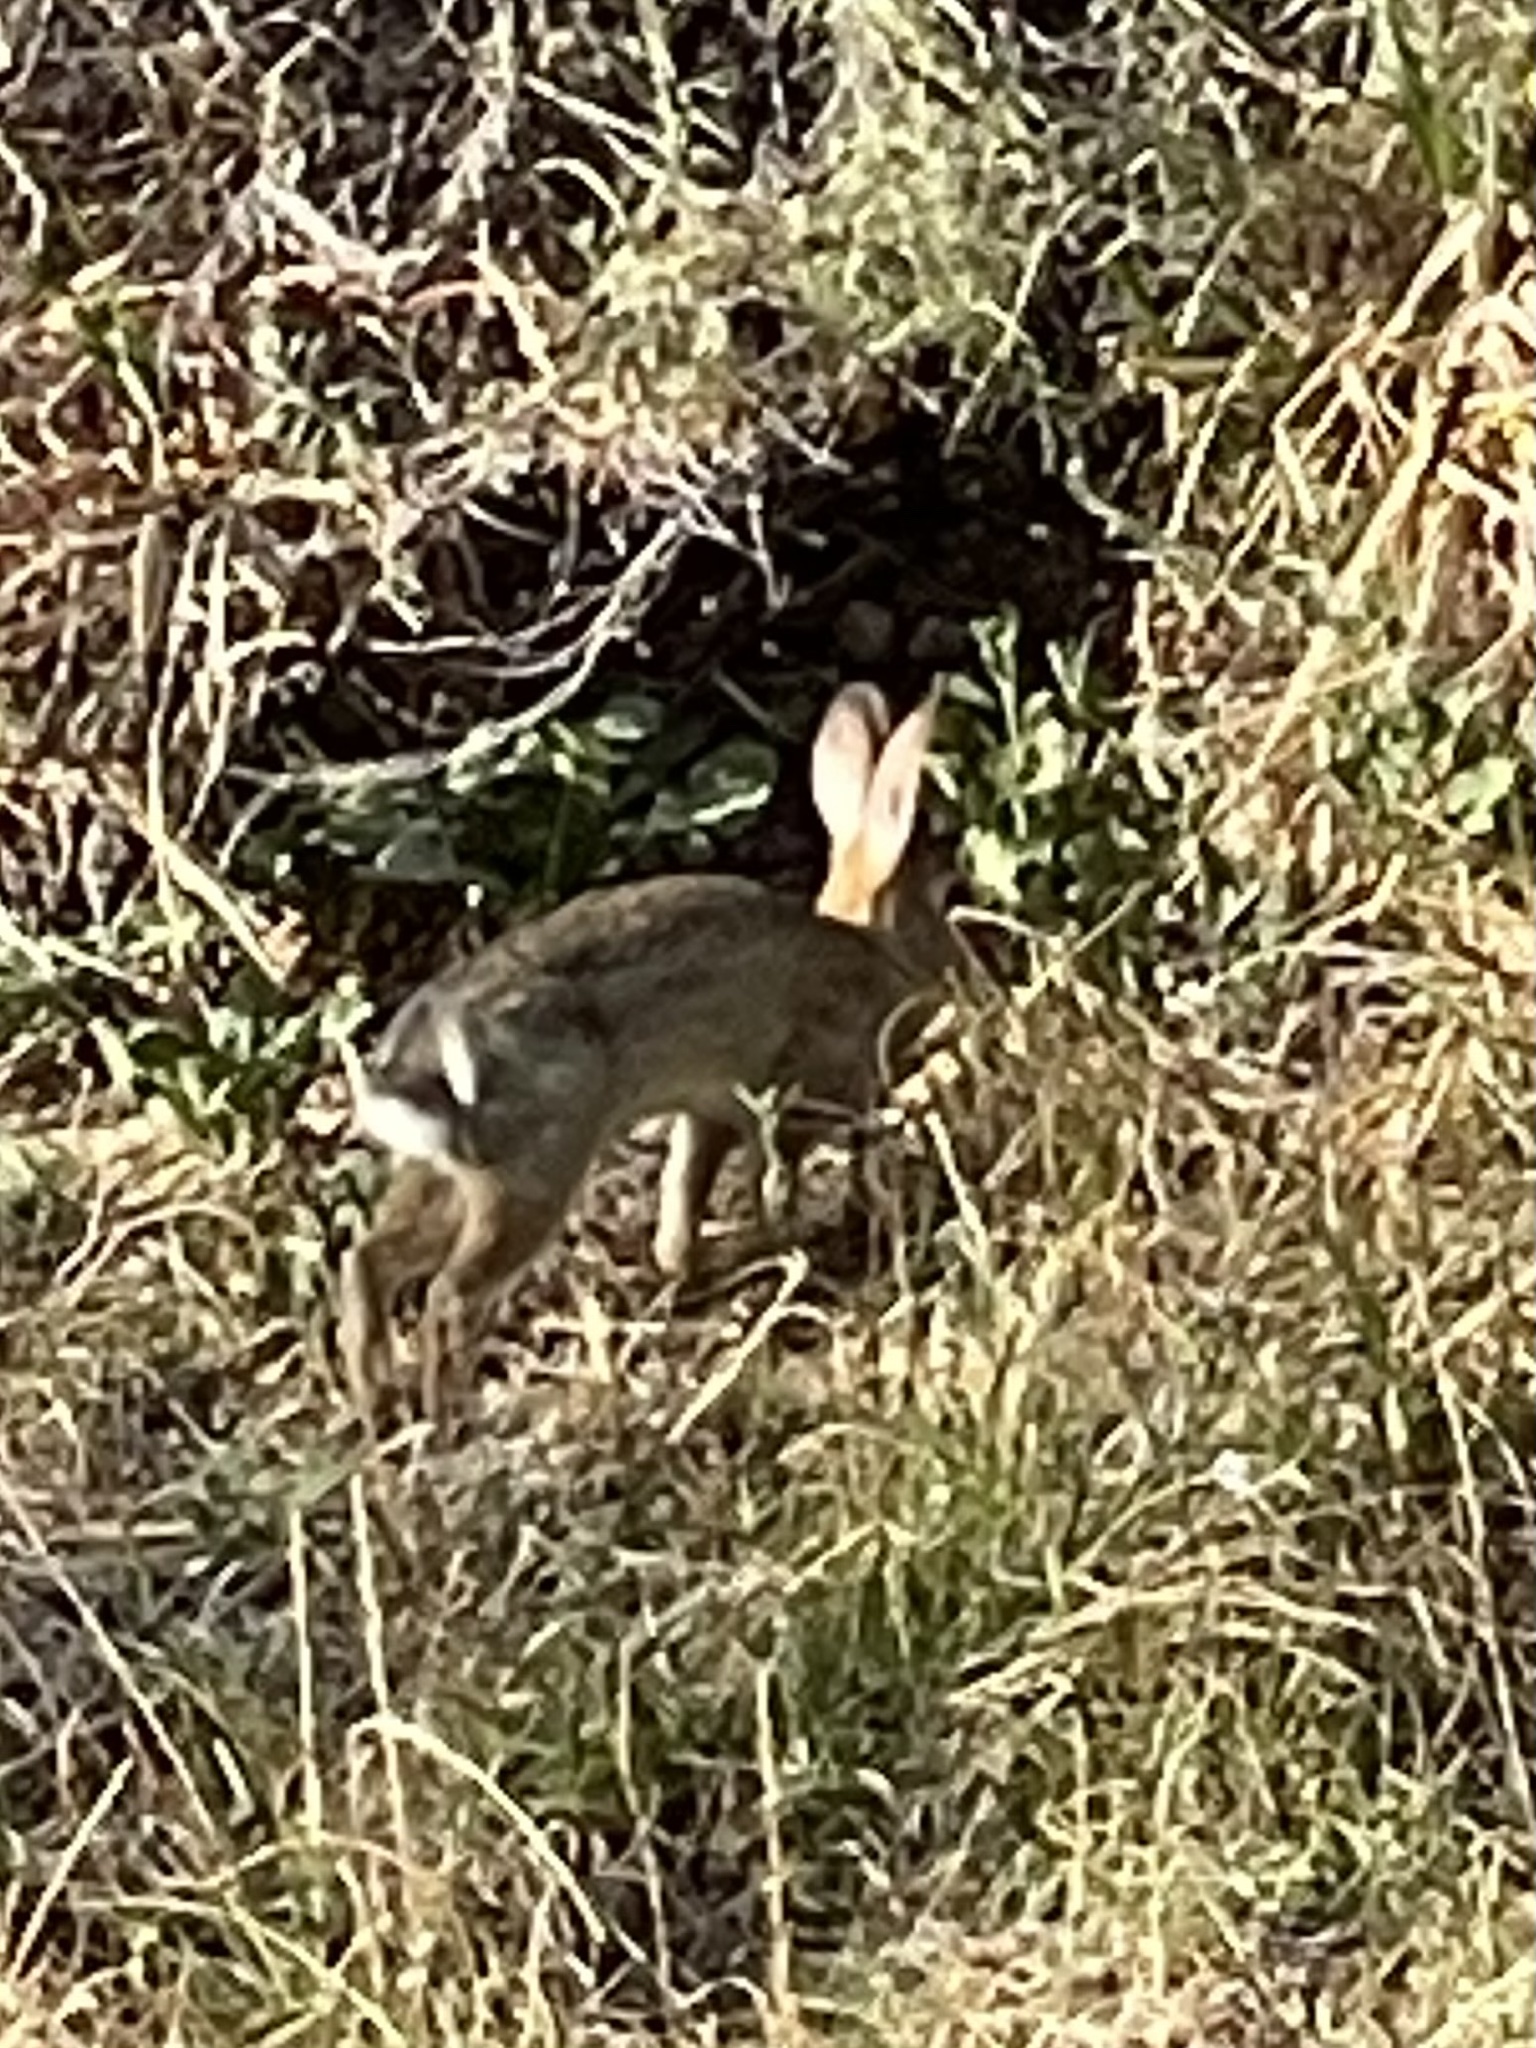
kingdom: Animalia
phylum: Chordata
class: Mammalia
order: Lagomorpha
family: Leporidae
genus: Sylvilagus
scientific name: Sylvilagus audubonii
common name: Desert cottontail
